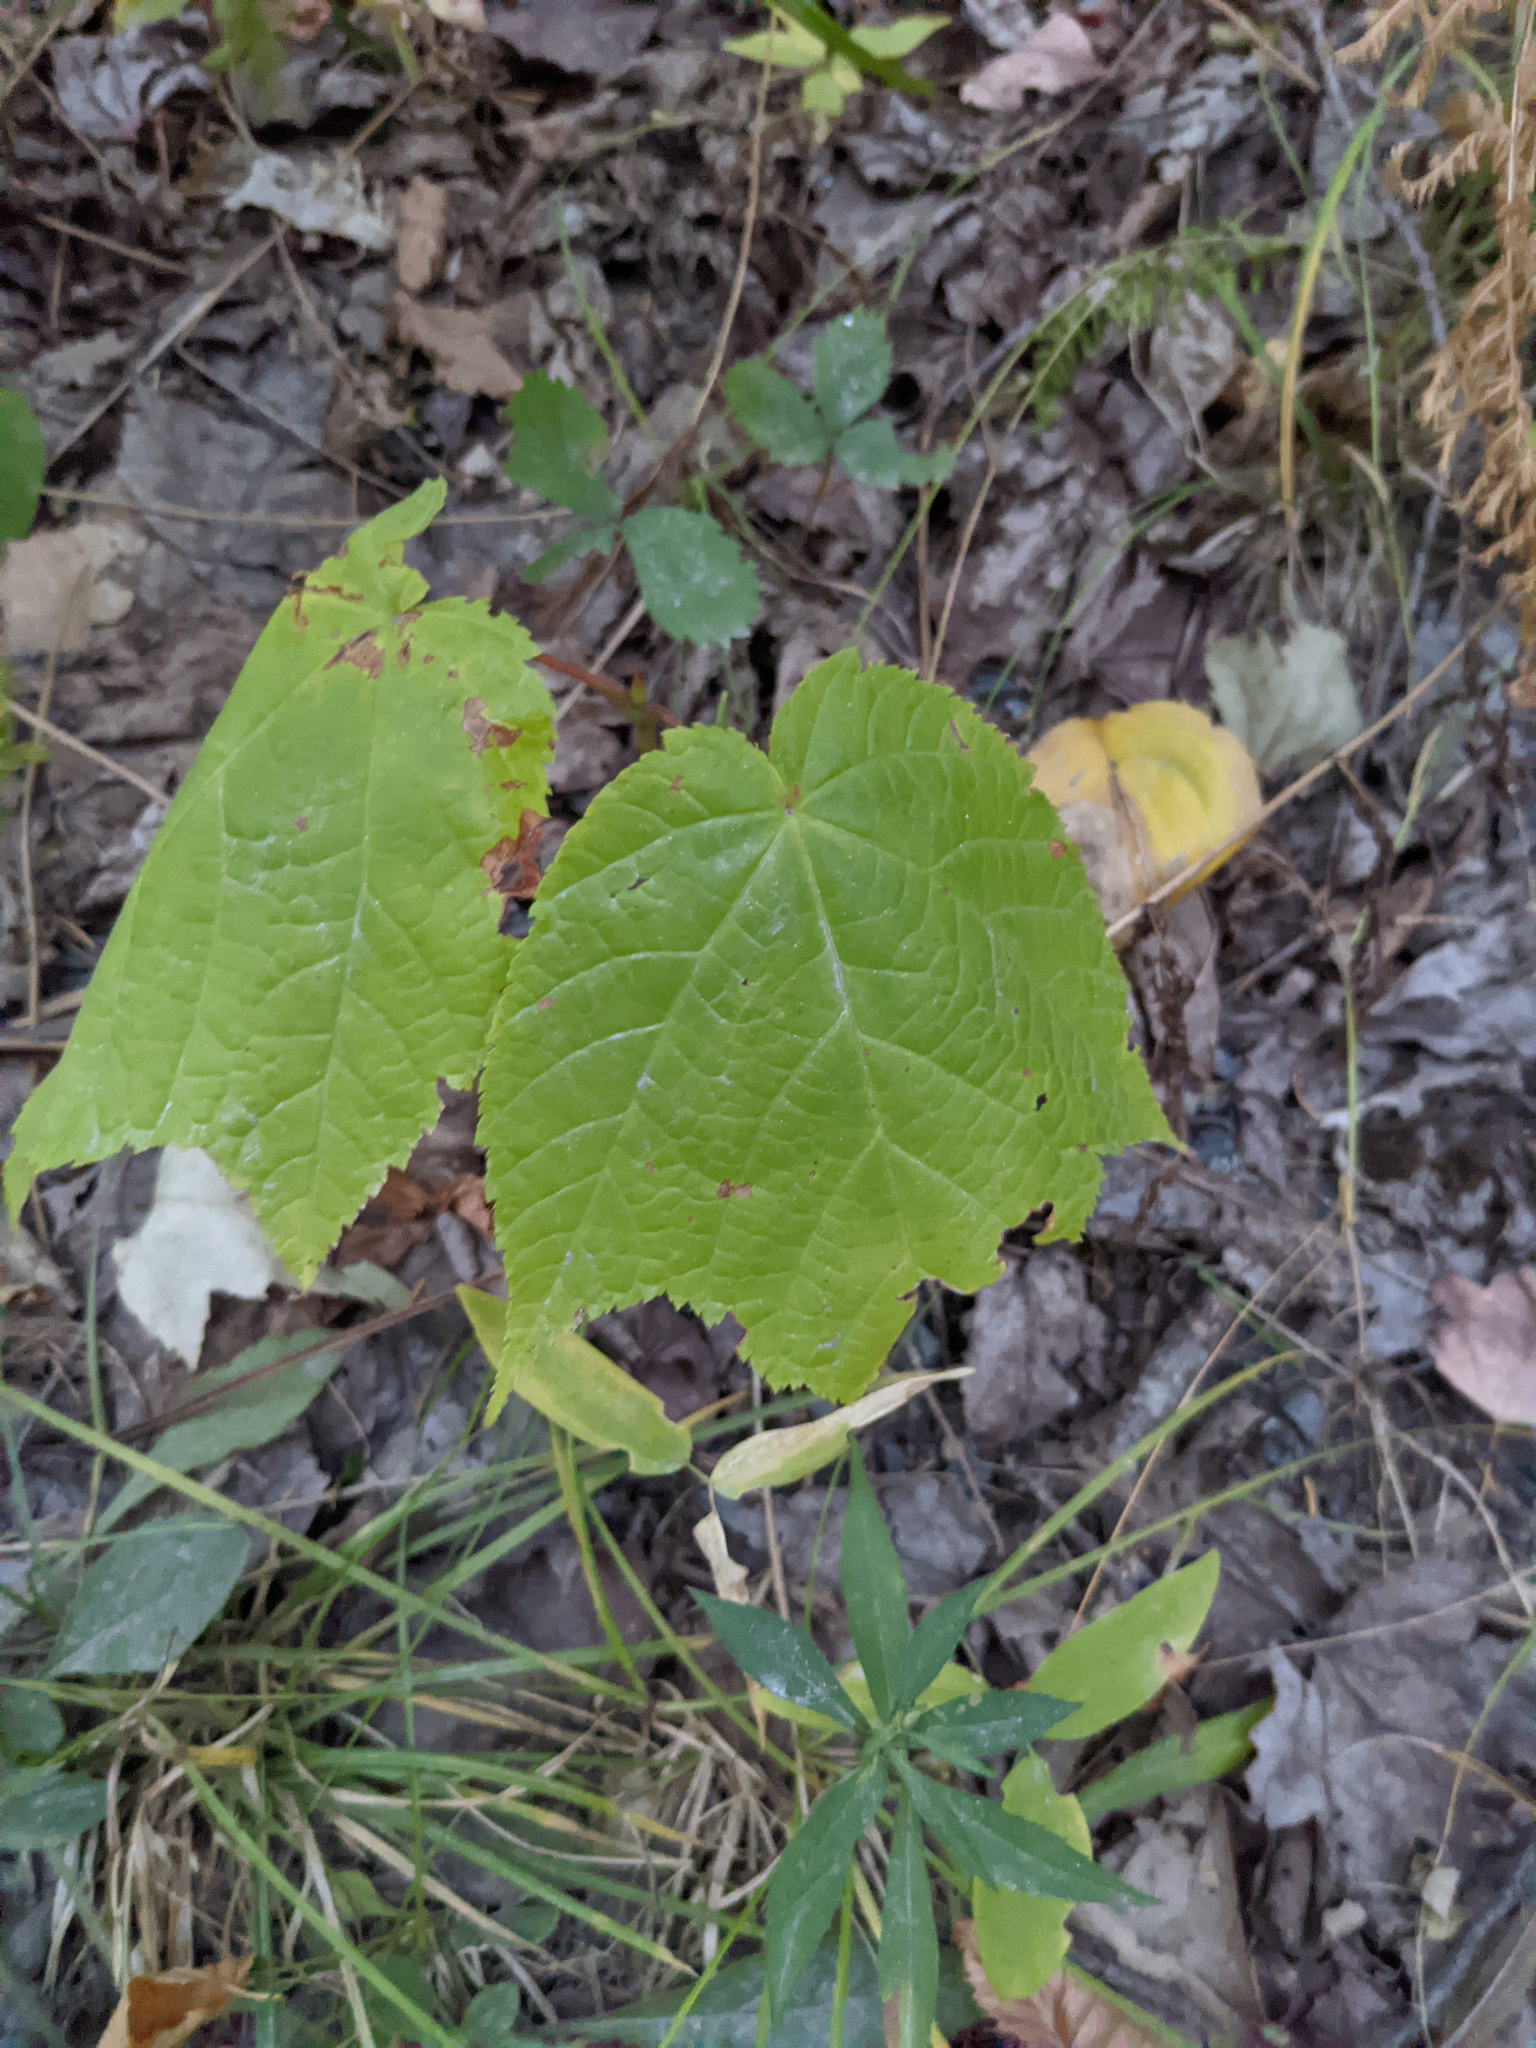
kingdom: Plantae
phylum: Tracheophyta
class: Magnoliopsida
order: Sapindales
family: Sapindaceae
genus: Acer
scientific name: Acer pensylvanicum
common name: Moosewood
